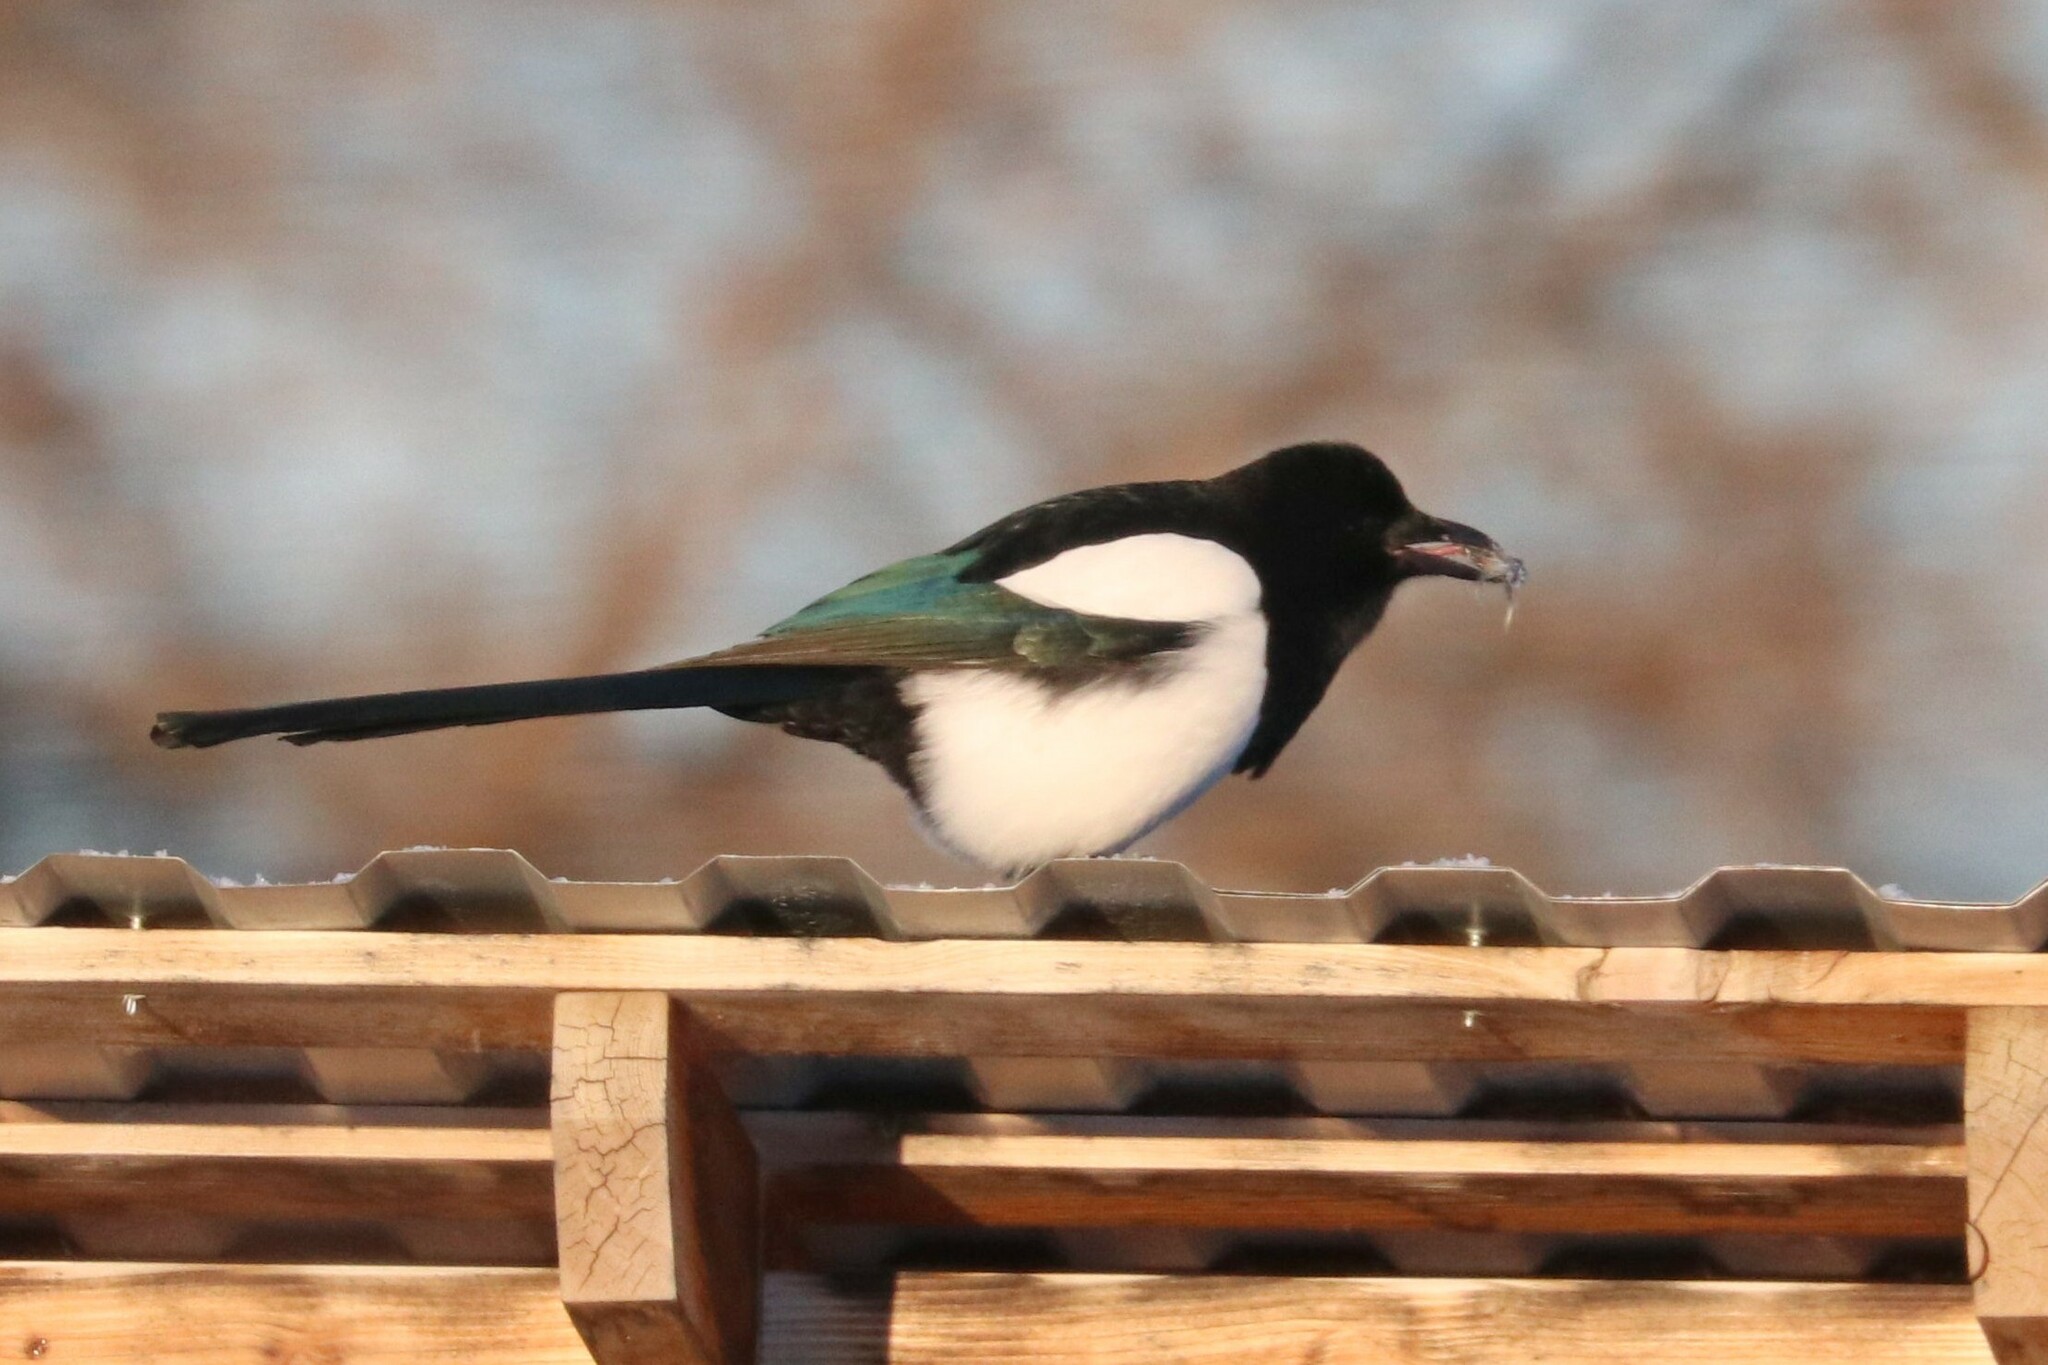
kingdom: Animalia
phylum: Chordata
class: Aves
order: Passeriformes
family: Corvidae
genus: Pica
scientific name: Pica pica
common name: Eurasian magpie
